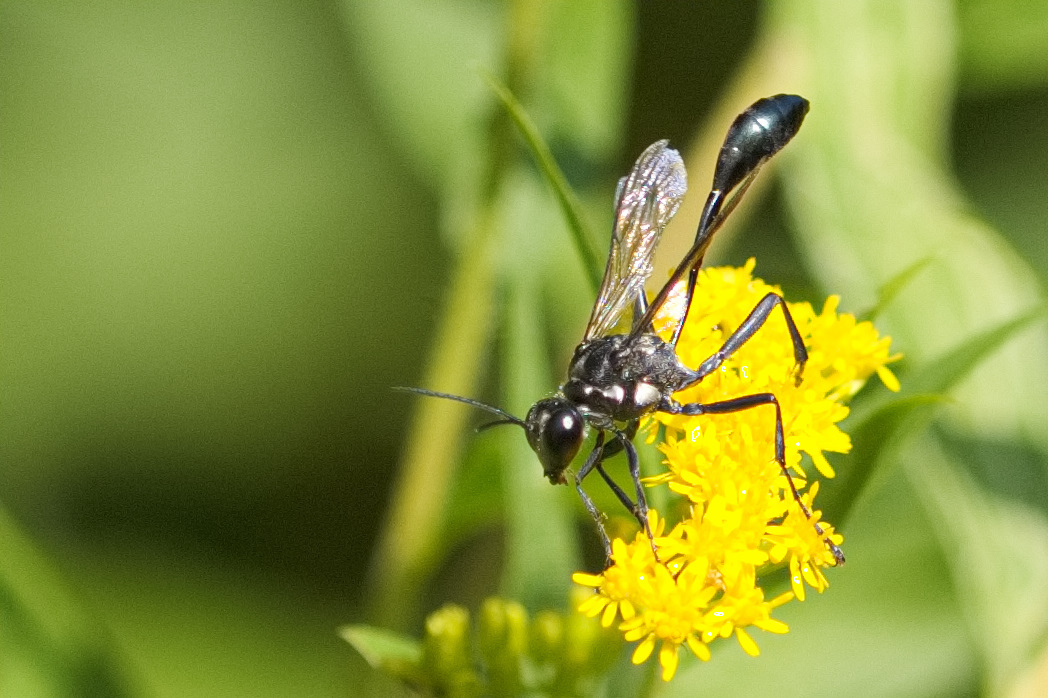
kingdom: Animalia
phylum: Arthropoda
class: Insecta
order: Hymenoptera
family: Sphecidae
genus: Eremnophila
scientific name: Eremnophila aureonotata
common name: Gold-marked thread-waisted wasp
